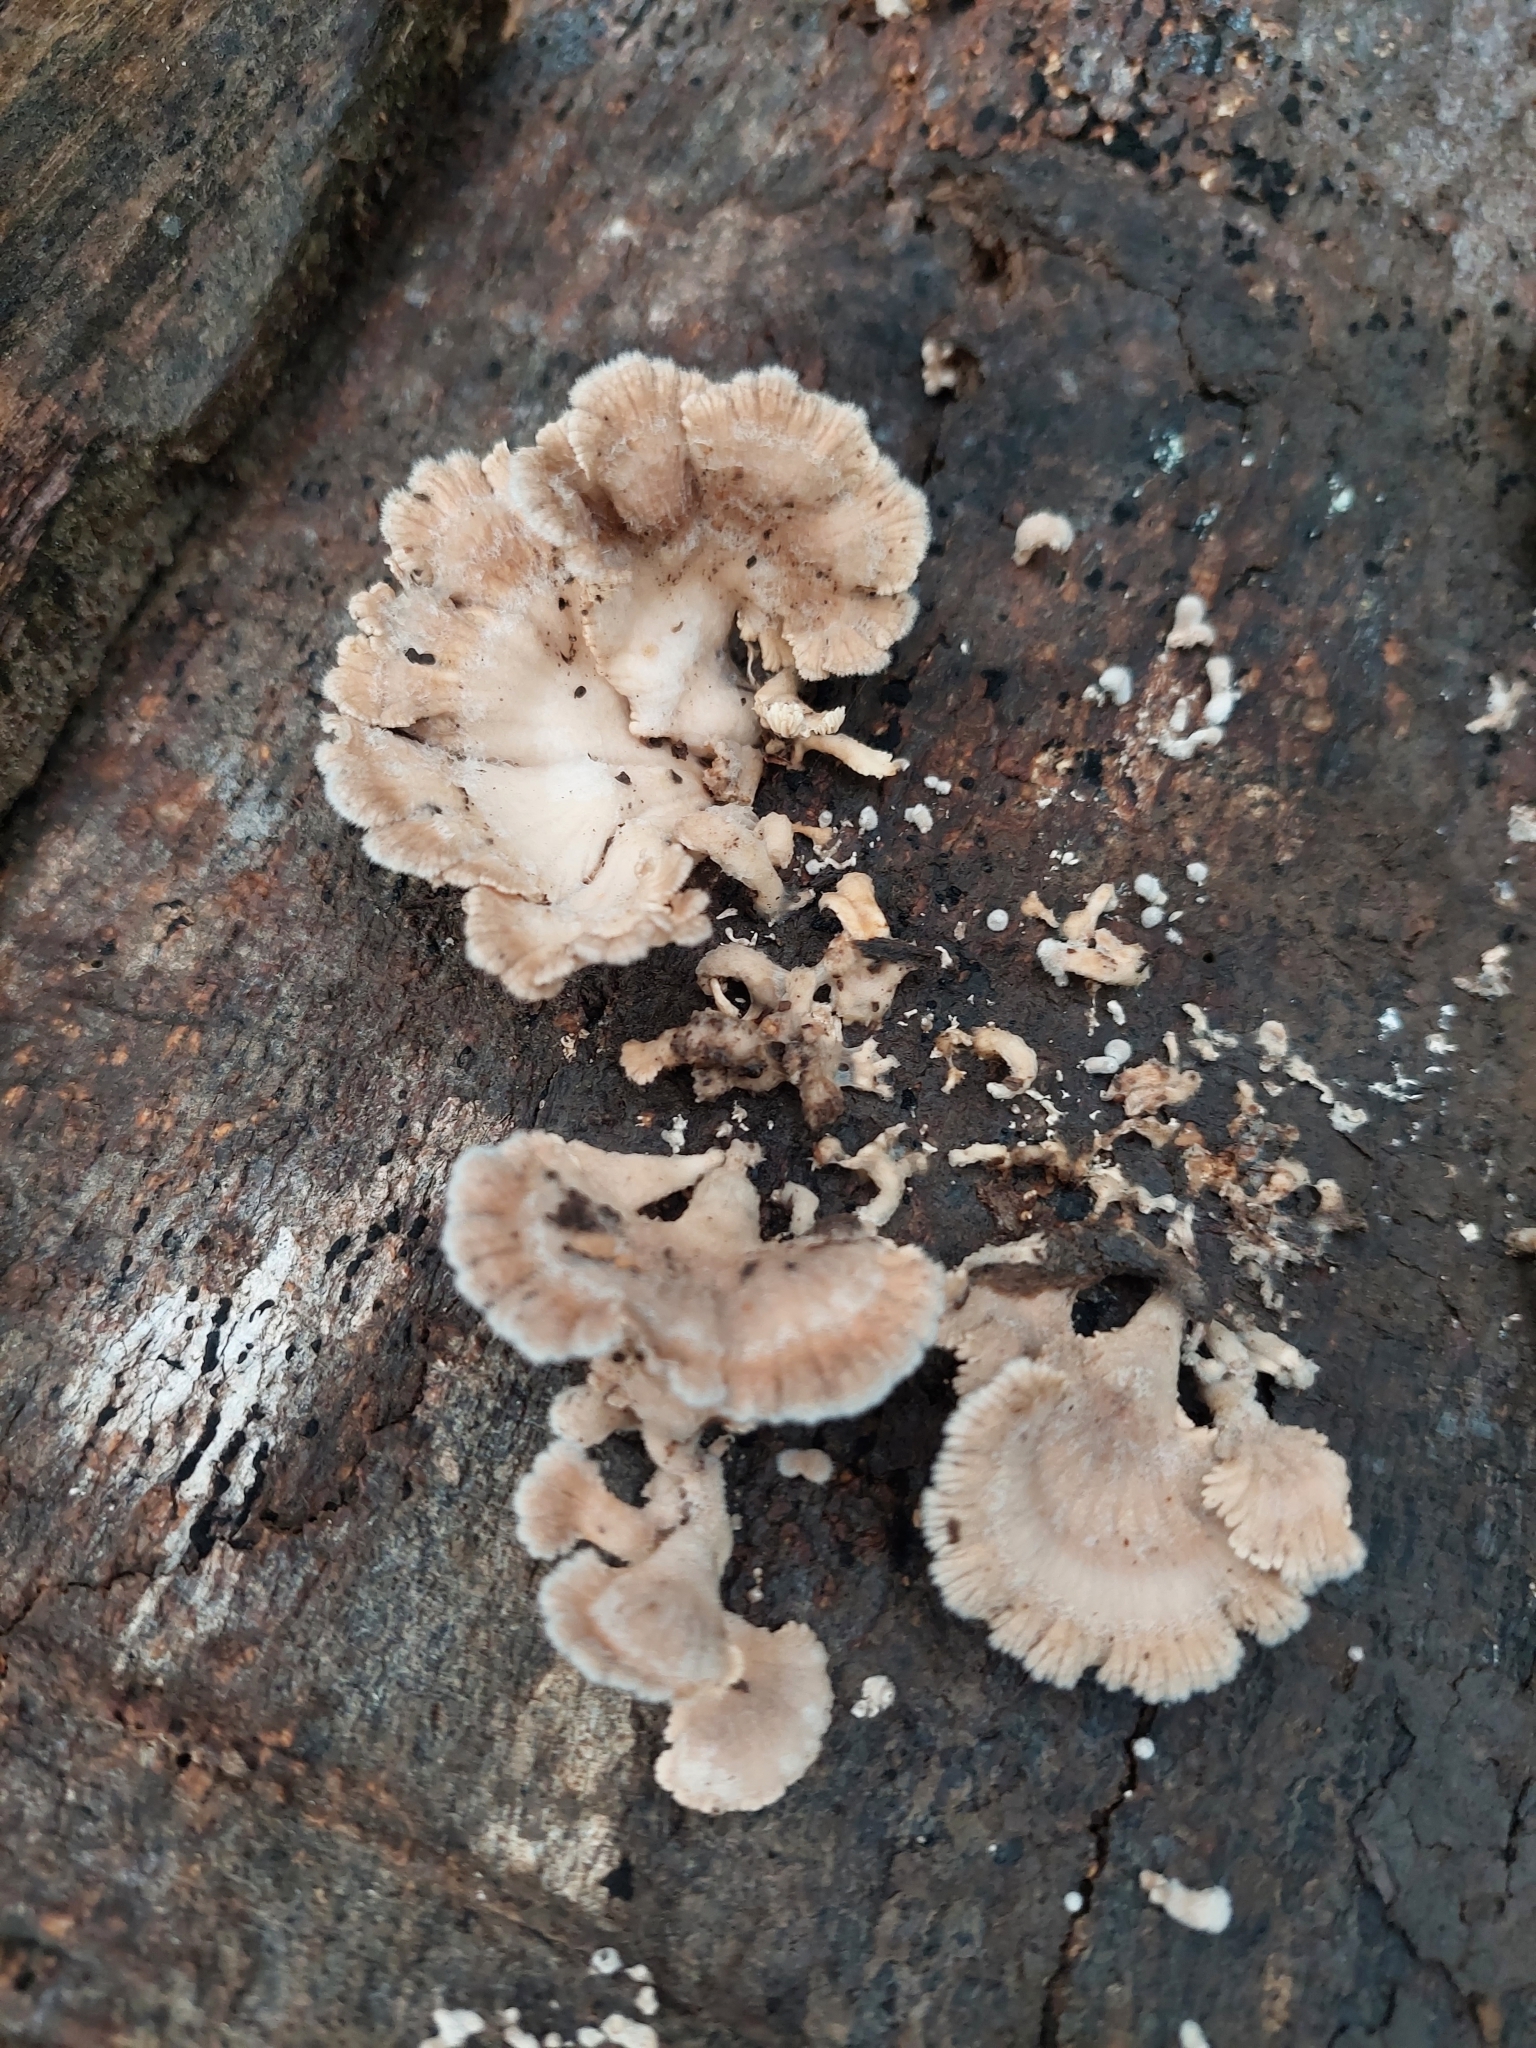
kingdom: Fungi
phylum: Basidiomycota
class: Agaricomycetes
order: Agaricales
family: Schizophyllaceae
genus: Schizophyllum
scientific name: Schizophyllum commune
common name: Common porecrust
